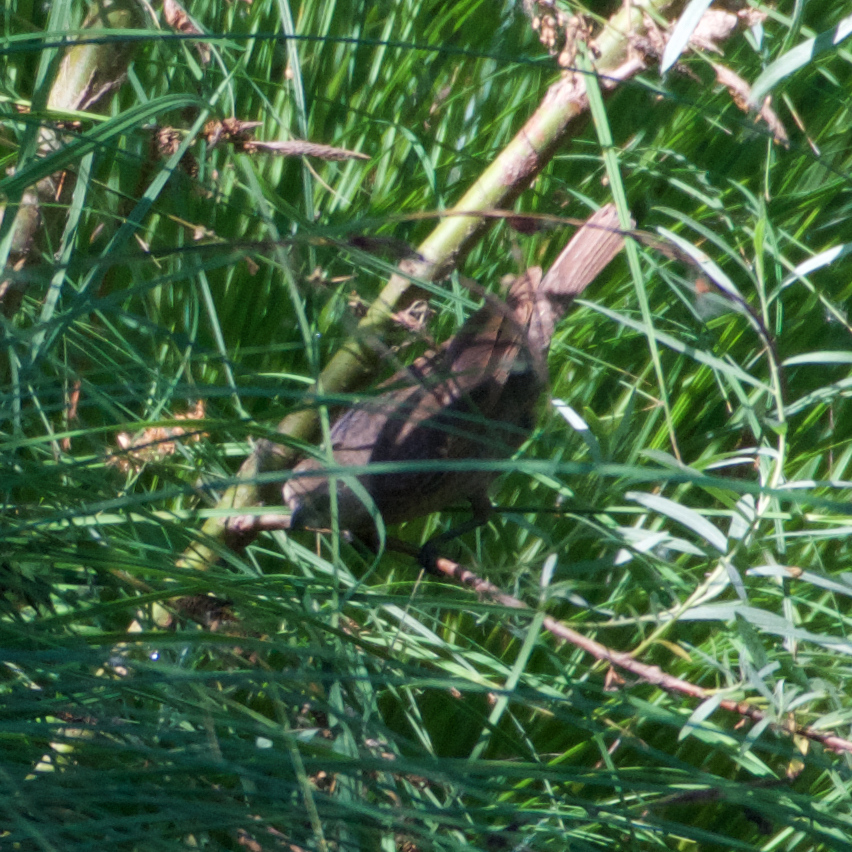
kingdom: Animalia
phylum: Chordata
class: Aves
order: Passeriformes
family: Icteridae
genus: Molothrus
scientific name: Molothrus ater
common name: Brown-headed cowbird
